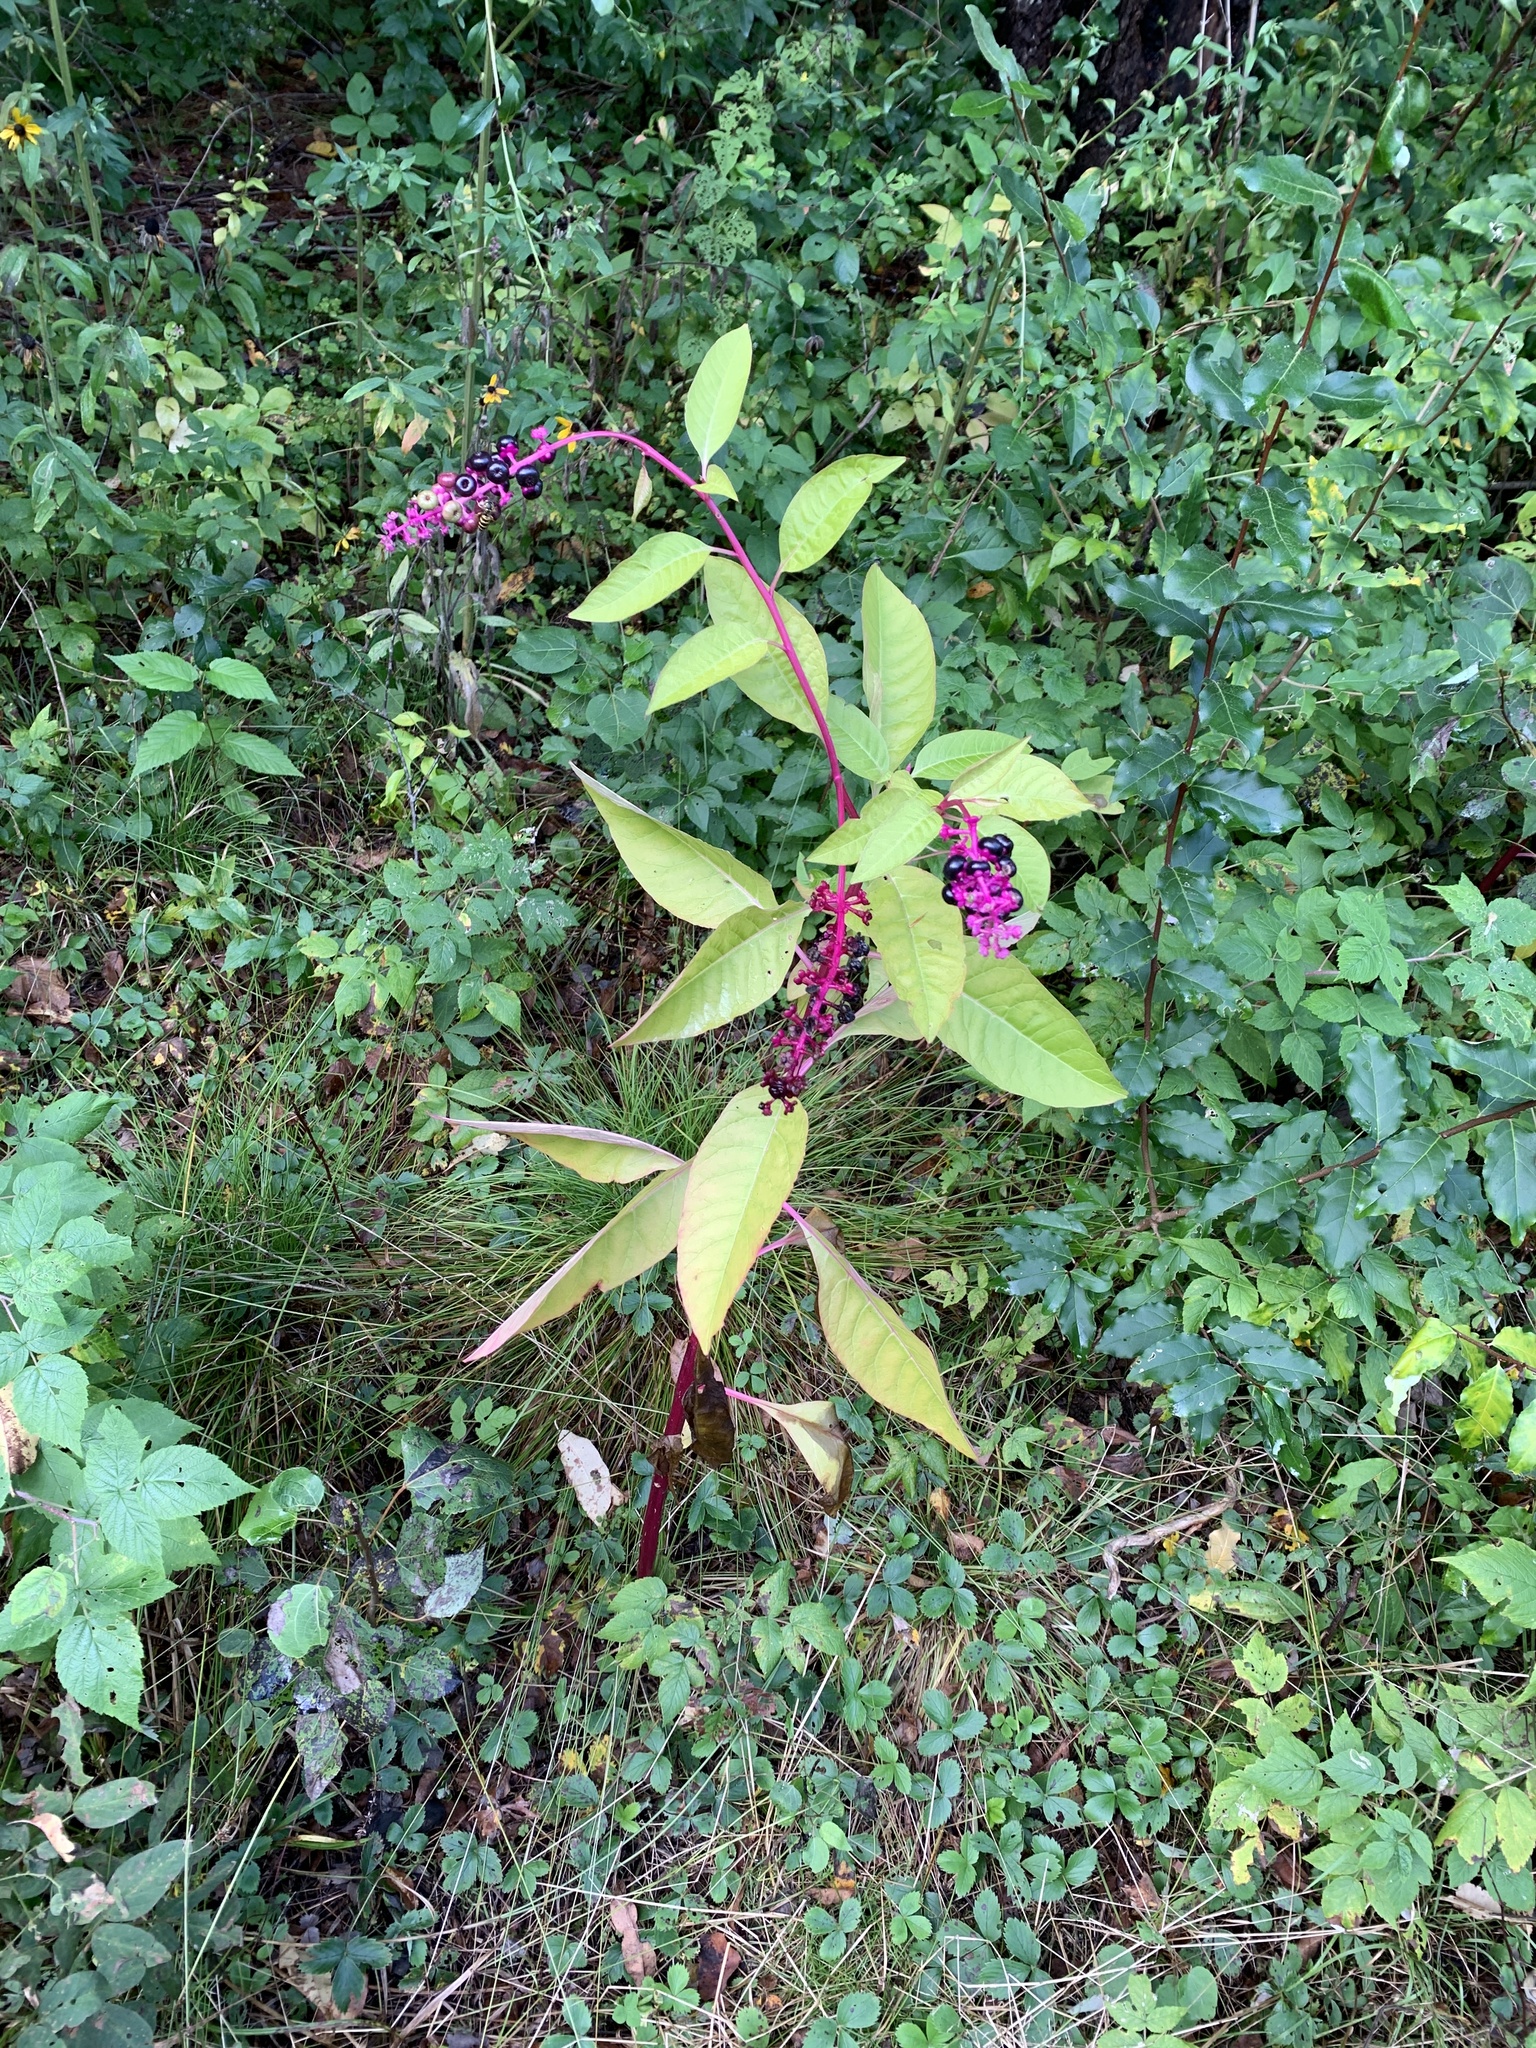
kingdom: Plantae
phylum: Tracheophyta
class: Magnoliopsida
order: Caryophyllales
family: Phytolaccaceae
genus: Phytolacca
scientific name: Phytolacca americana
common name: American pokeweed
